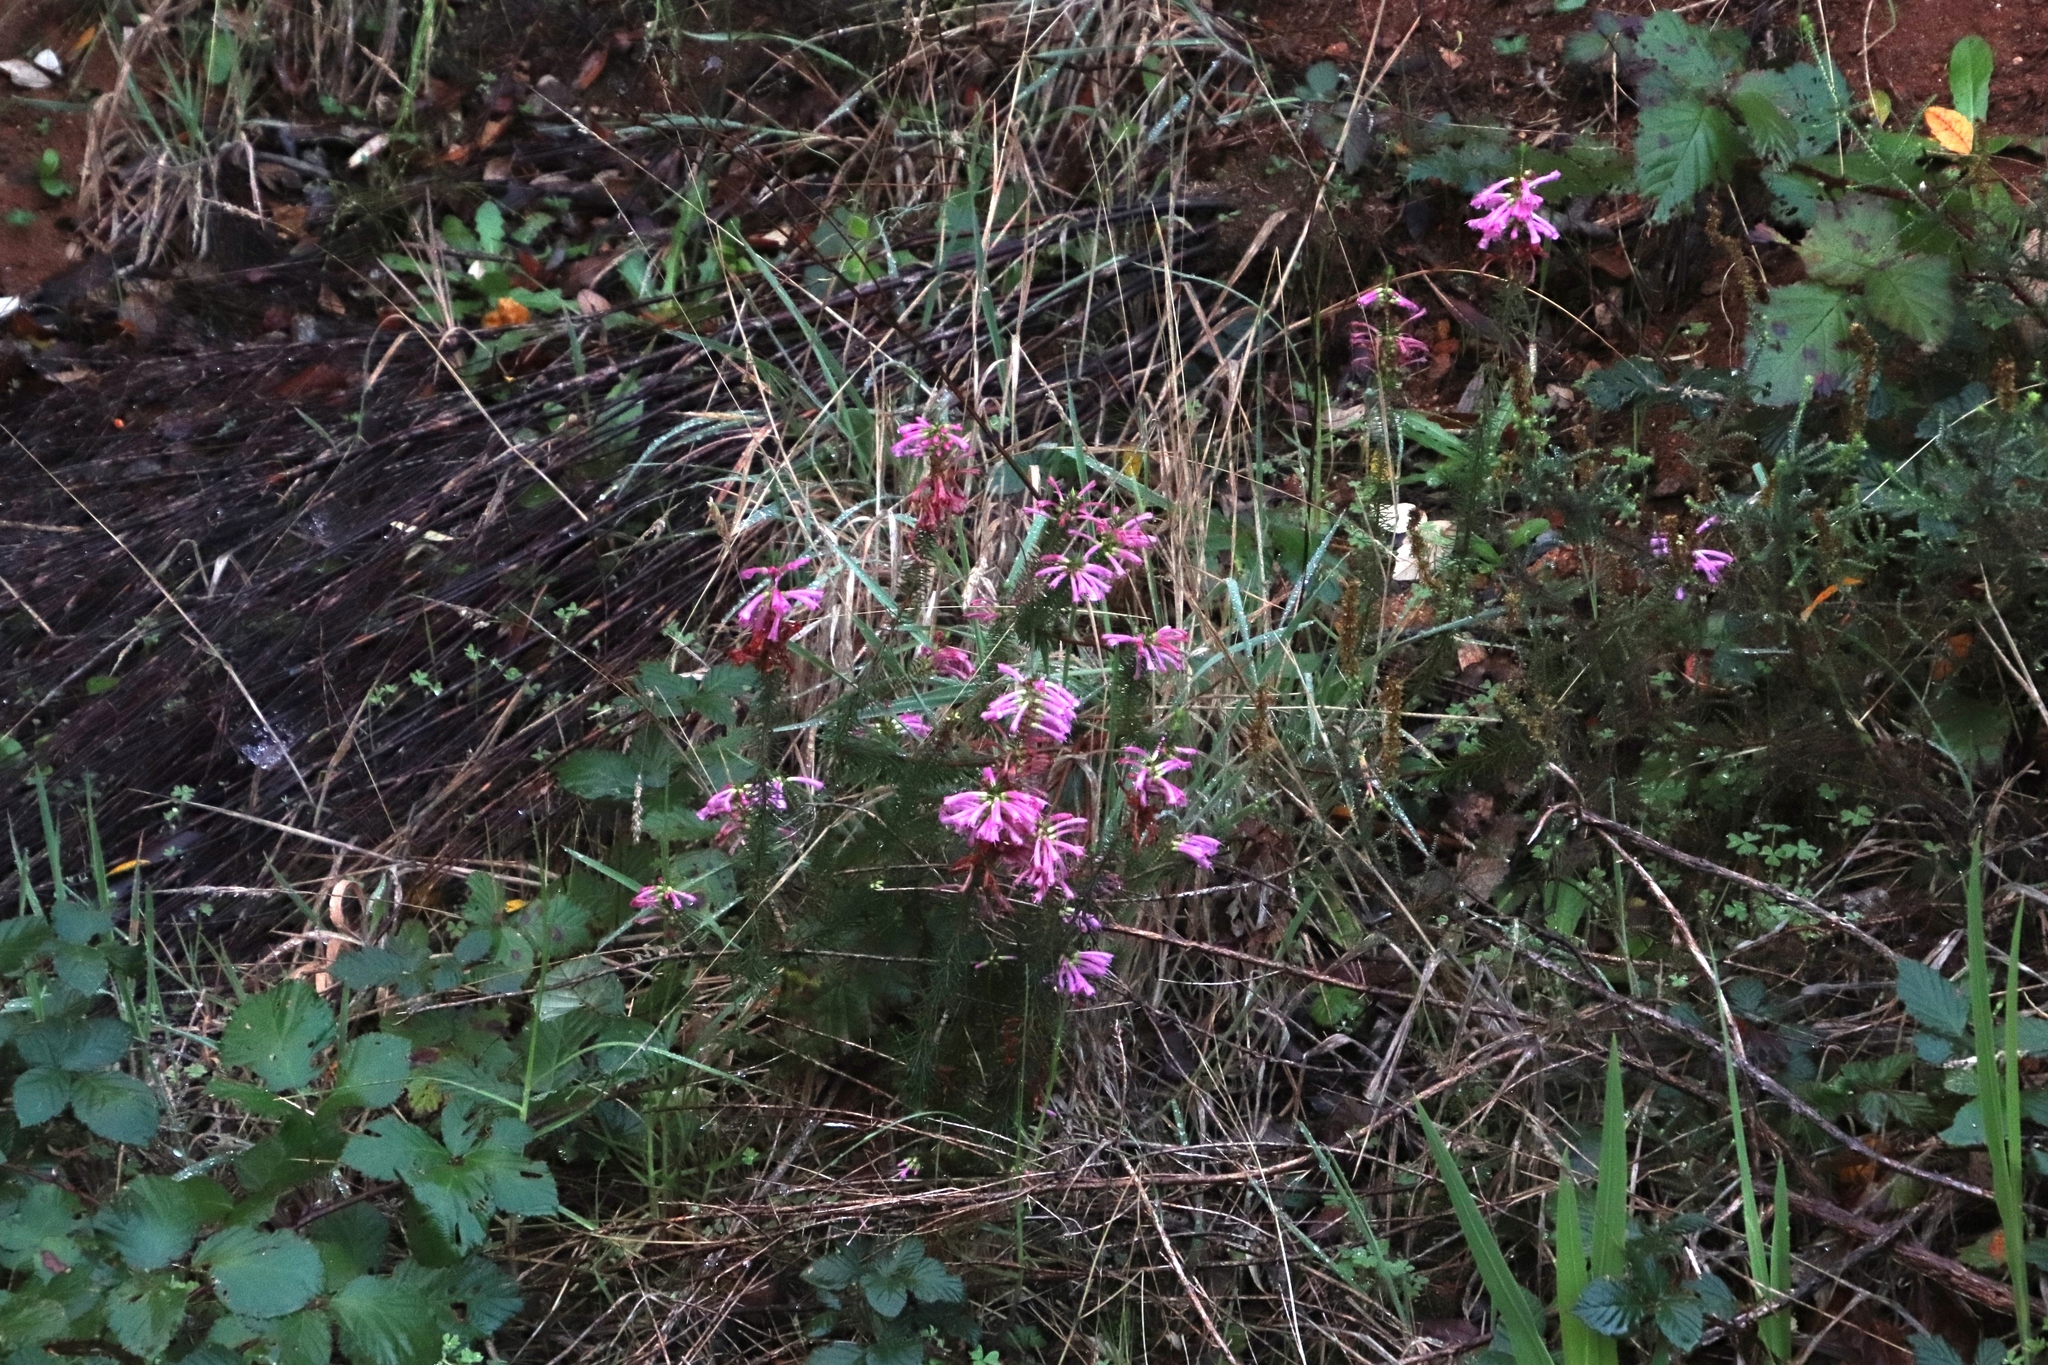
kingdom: Plantae
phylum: Tracheophyta
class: Magnoliopsida
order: Ericales
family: Ericaceae
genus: Erica
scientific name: Erica abietina
